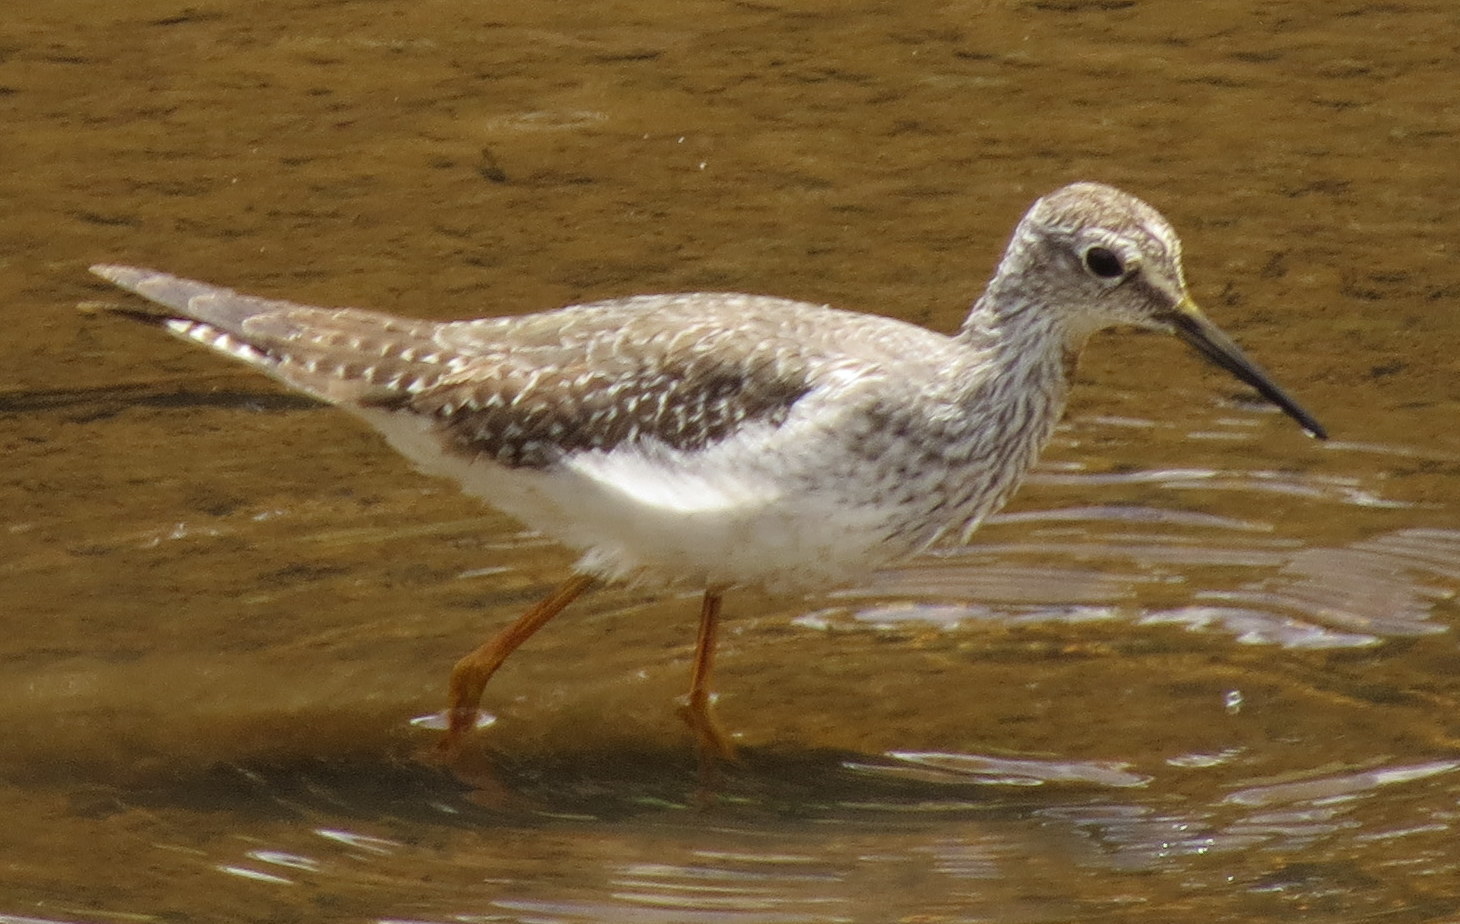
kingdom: Animalia
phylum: Chordata
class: Aves
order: Charadriiformes
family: Scolopacidae
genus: Tringa
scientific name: Tringa flavipes
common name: Lesser yellowlegs
